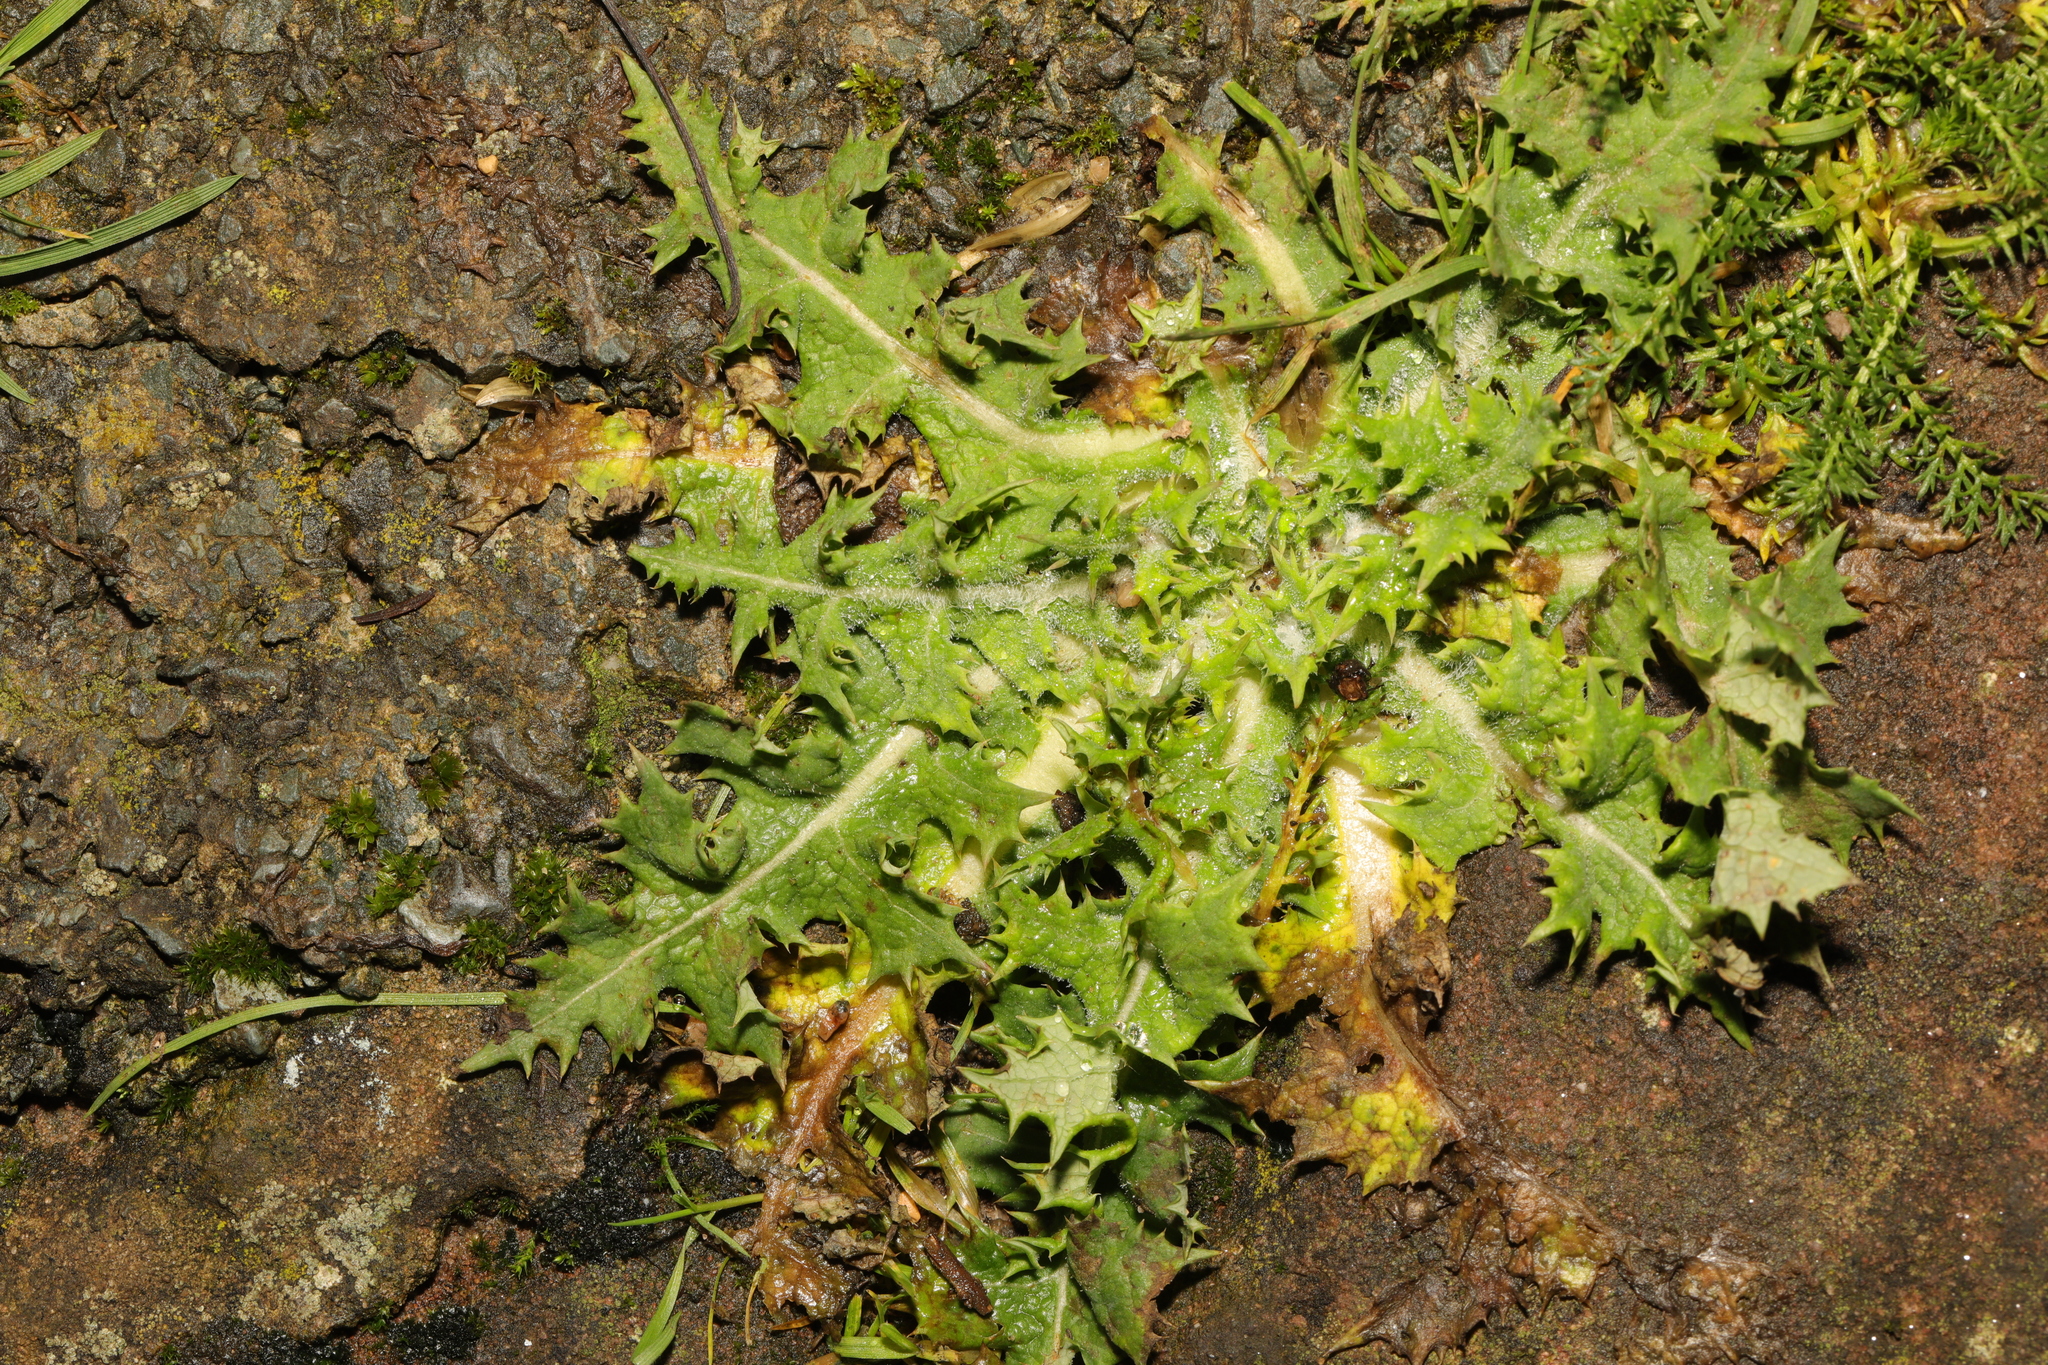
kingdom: Plantae
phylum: Tracheophyta
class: Magnoliopsida
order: Asterales
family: Asteraceae
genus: Sonchus
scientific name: Sonchus asper
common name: Prickly sow-thistle
